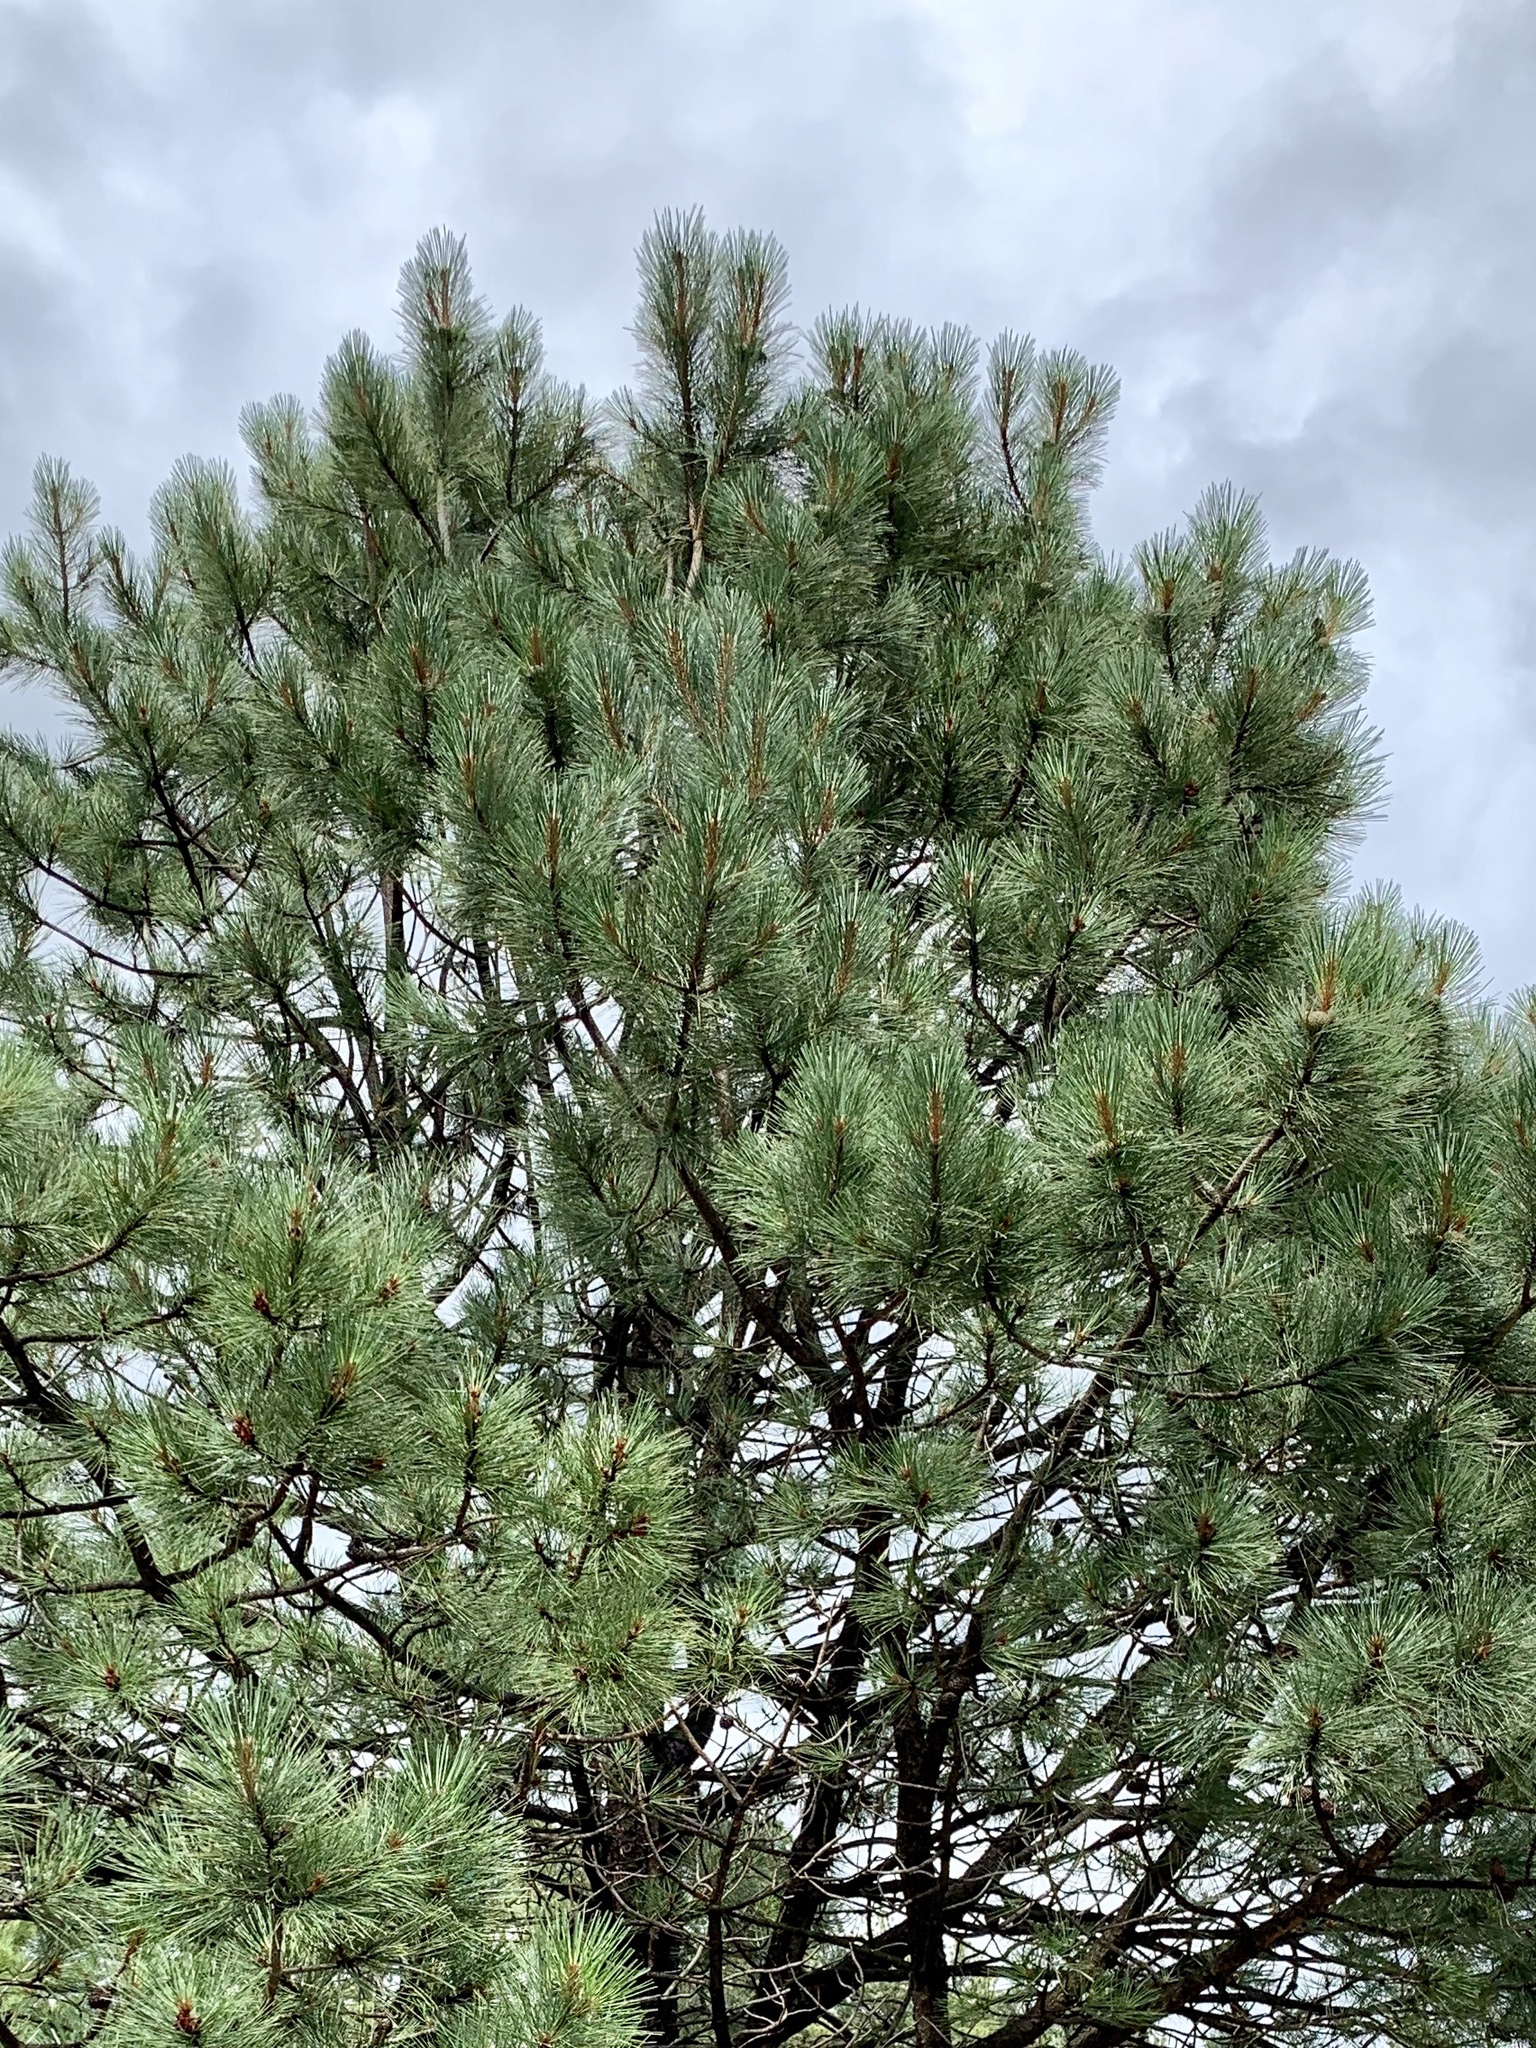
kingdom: Plantae
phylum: Tracheophyta
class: Pinopsida
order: Pinales
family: Pinaceae
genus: Pinus
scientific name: Pinus ponderosa
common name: Western yellow-pine
